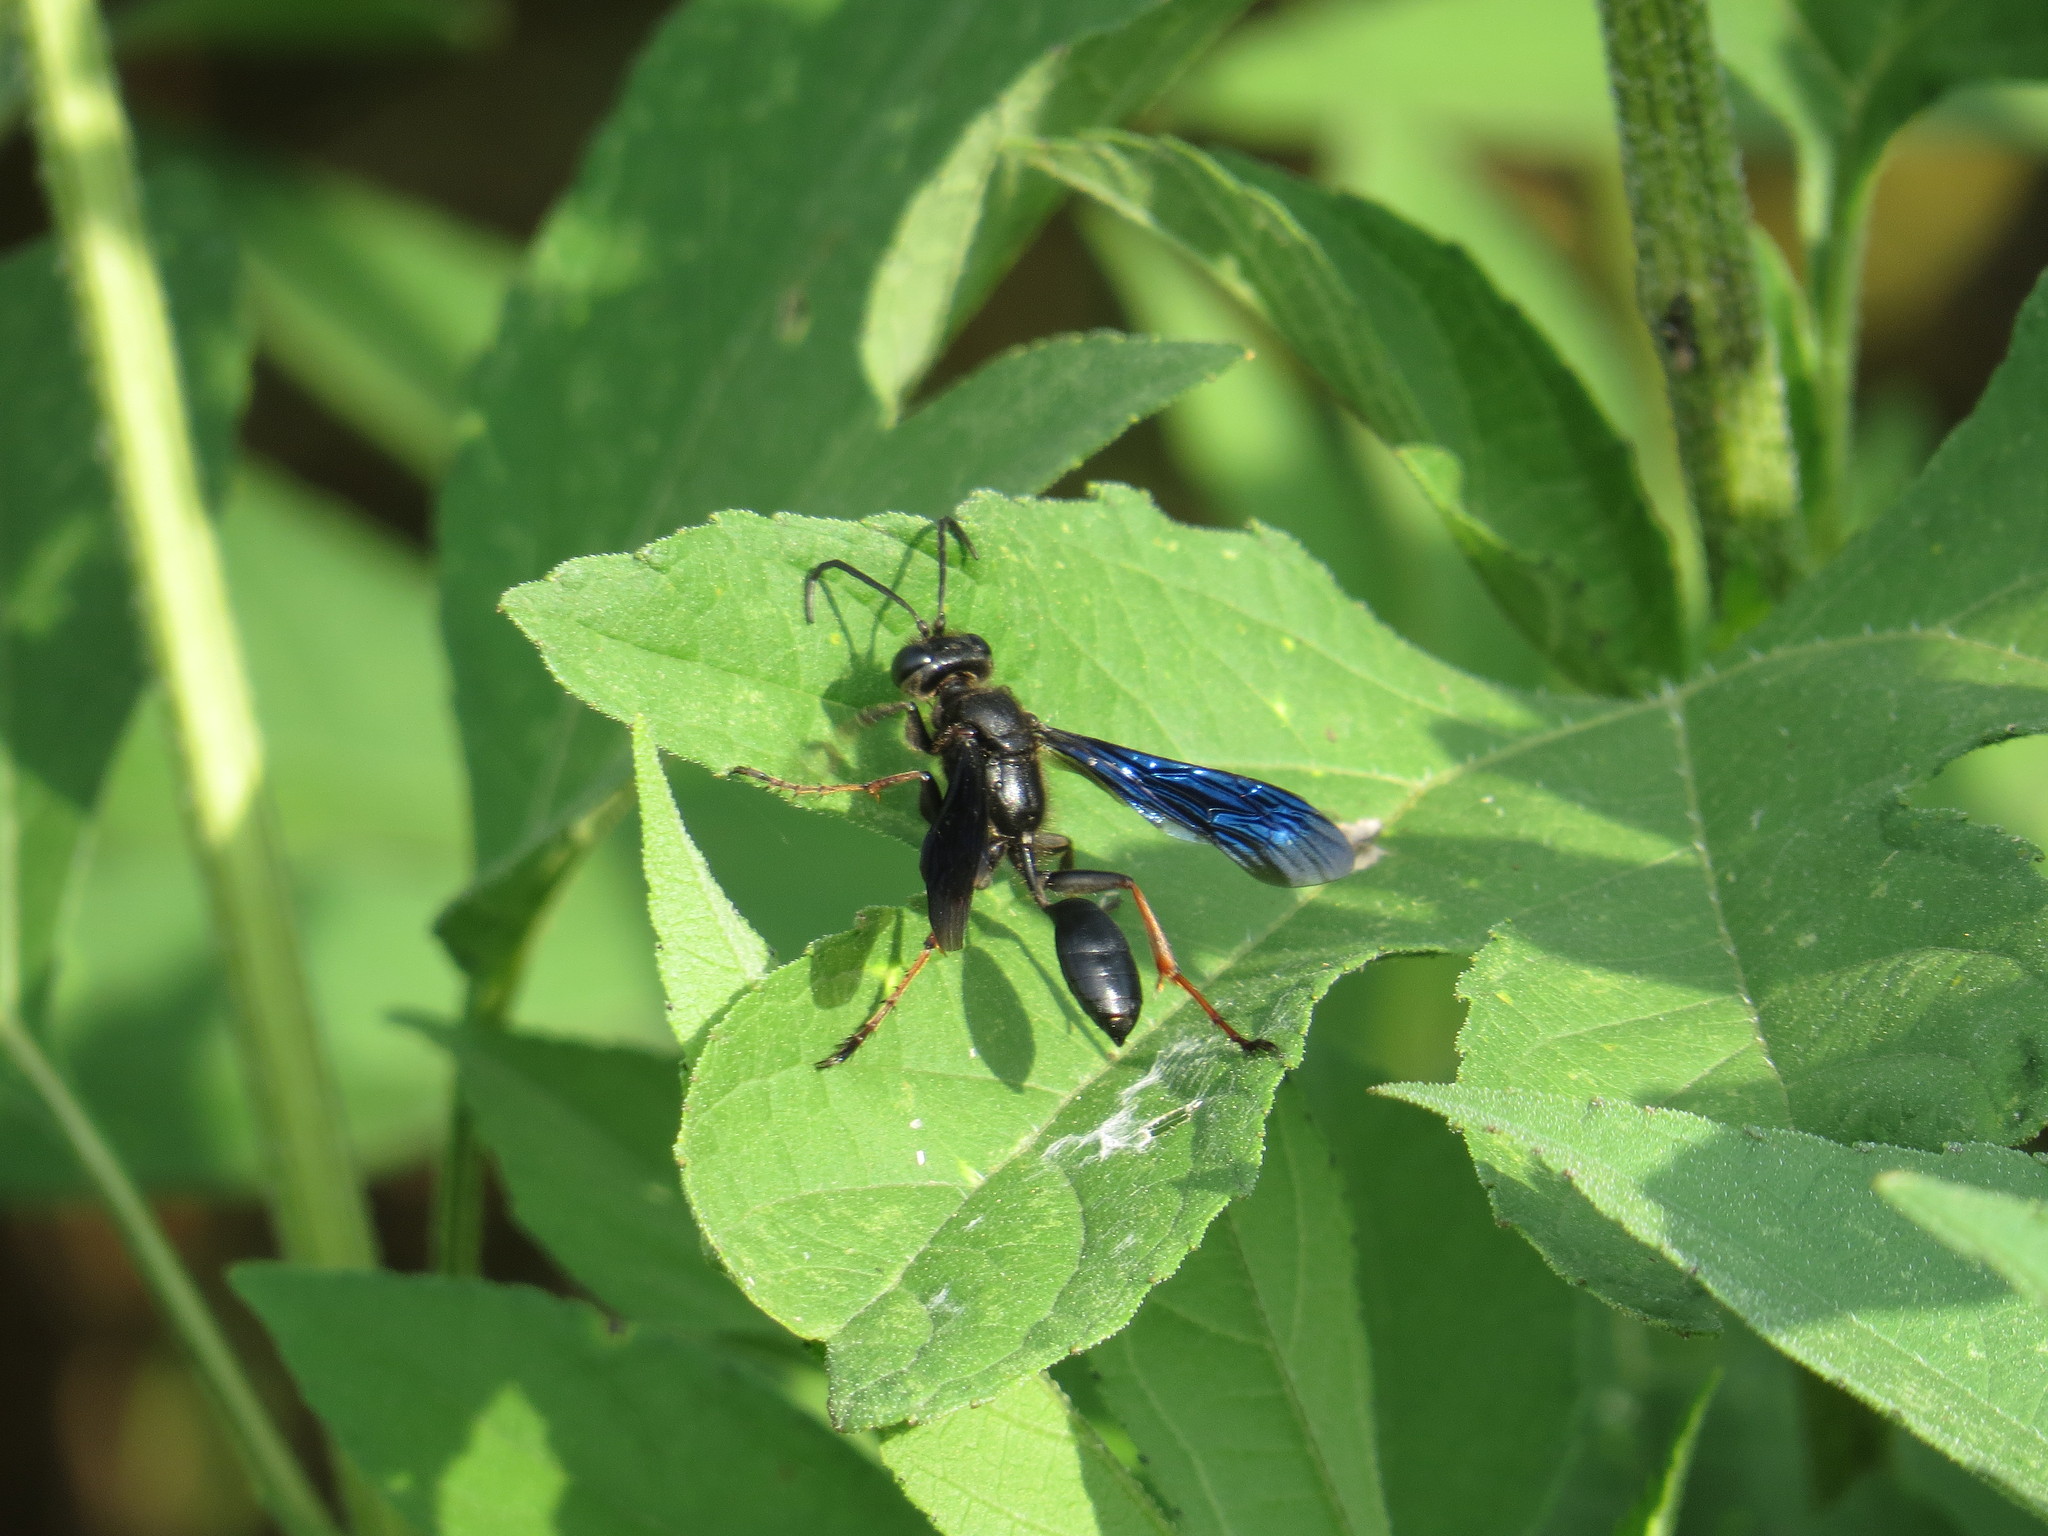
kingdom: Animalia
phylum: Arthropoda
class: Insecta
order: Hymenoptera
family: Sphecidae
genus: Isodontia
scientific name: Isodontia auripes
